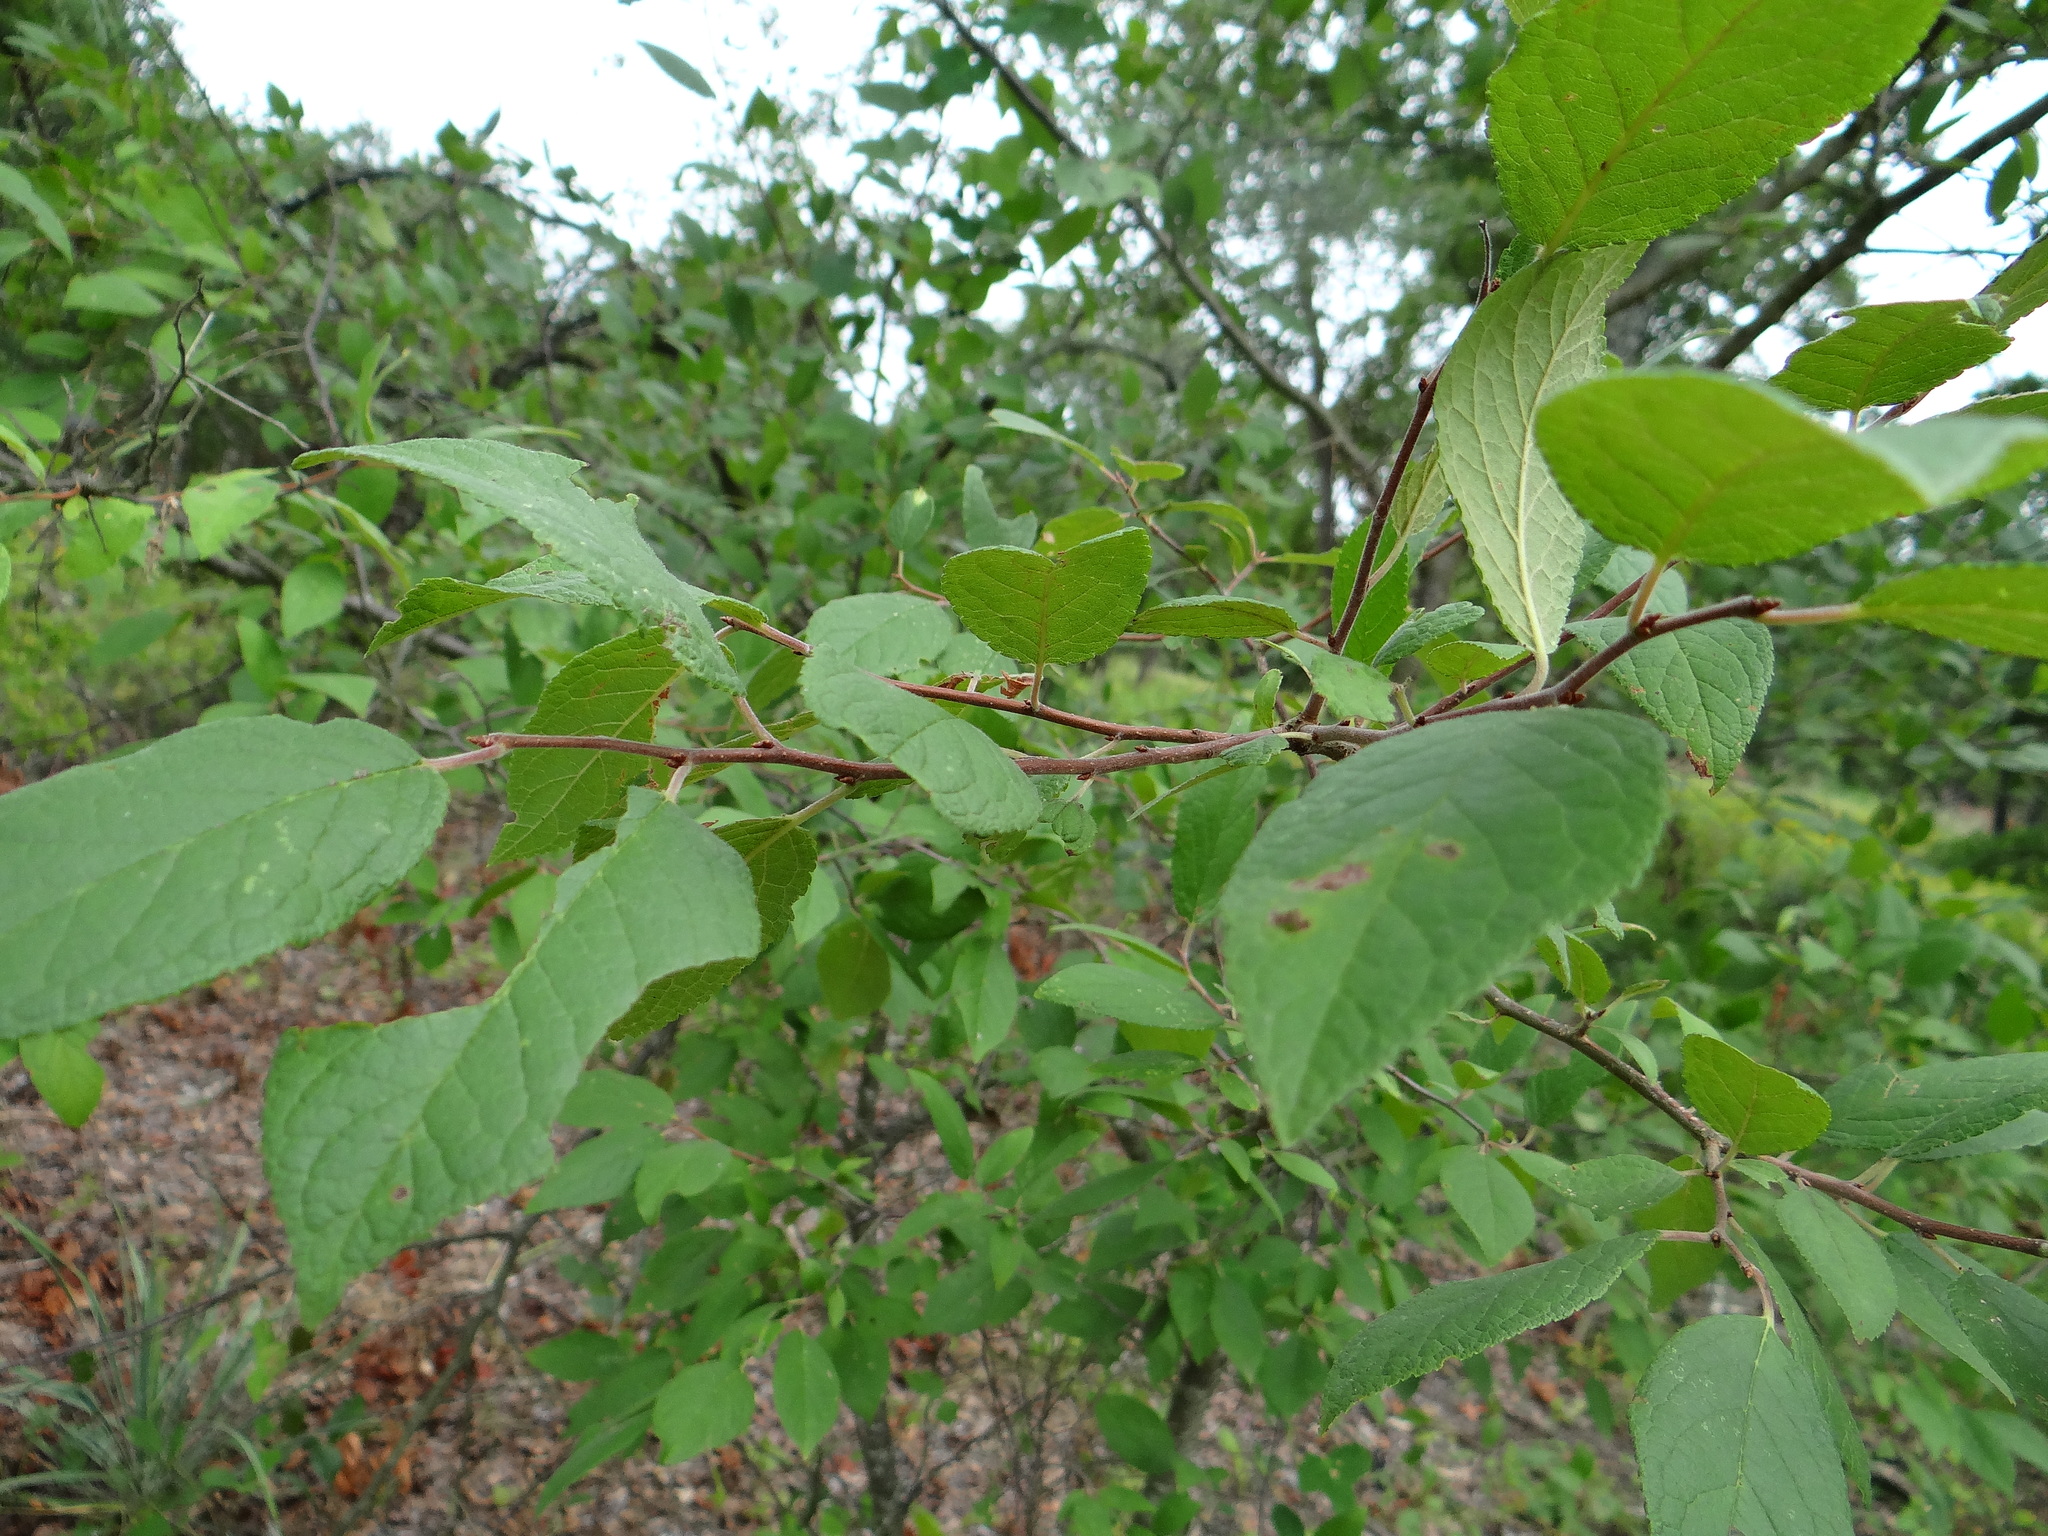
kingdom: Plantae
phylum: Tracheophyta
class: Magnoliopsida
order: Rosales
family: Rosaceae
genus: Prunus
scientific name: Prunus mexicana
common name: Mexican plum
